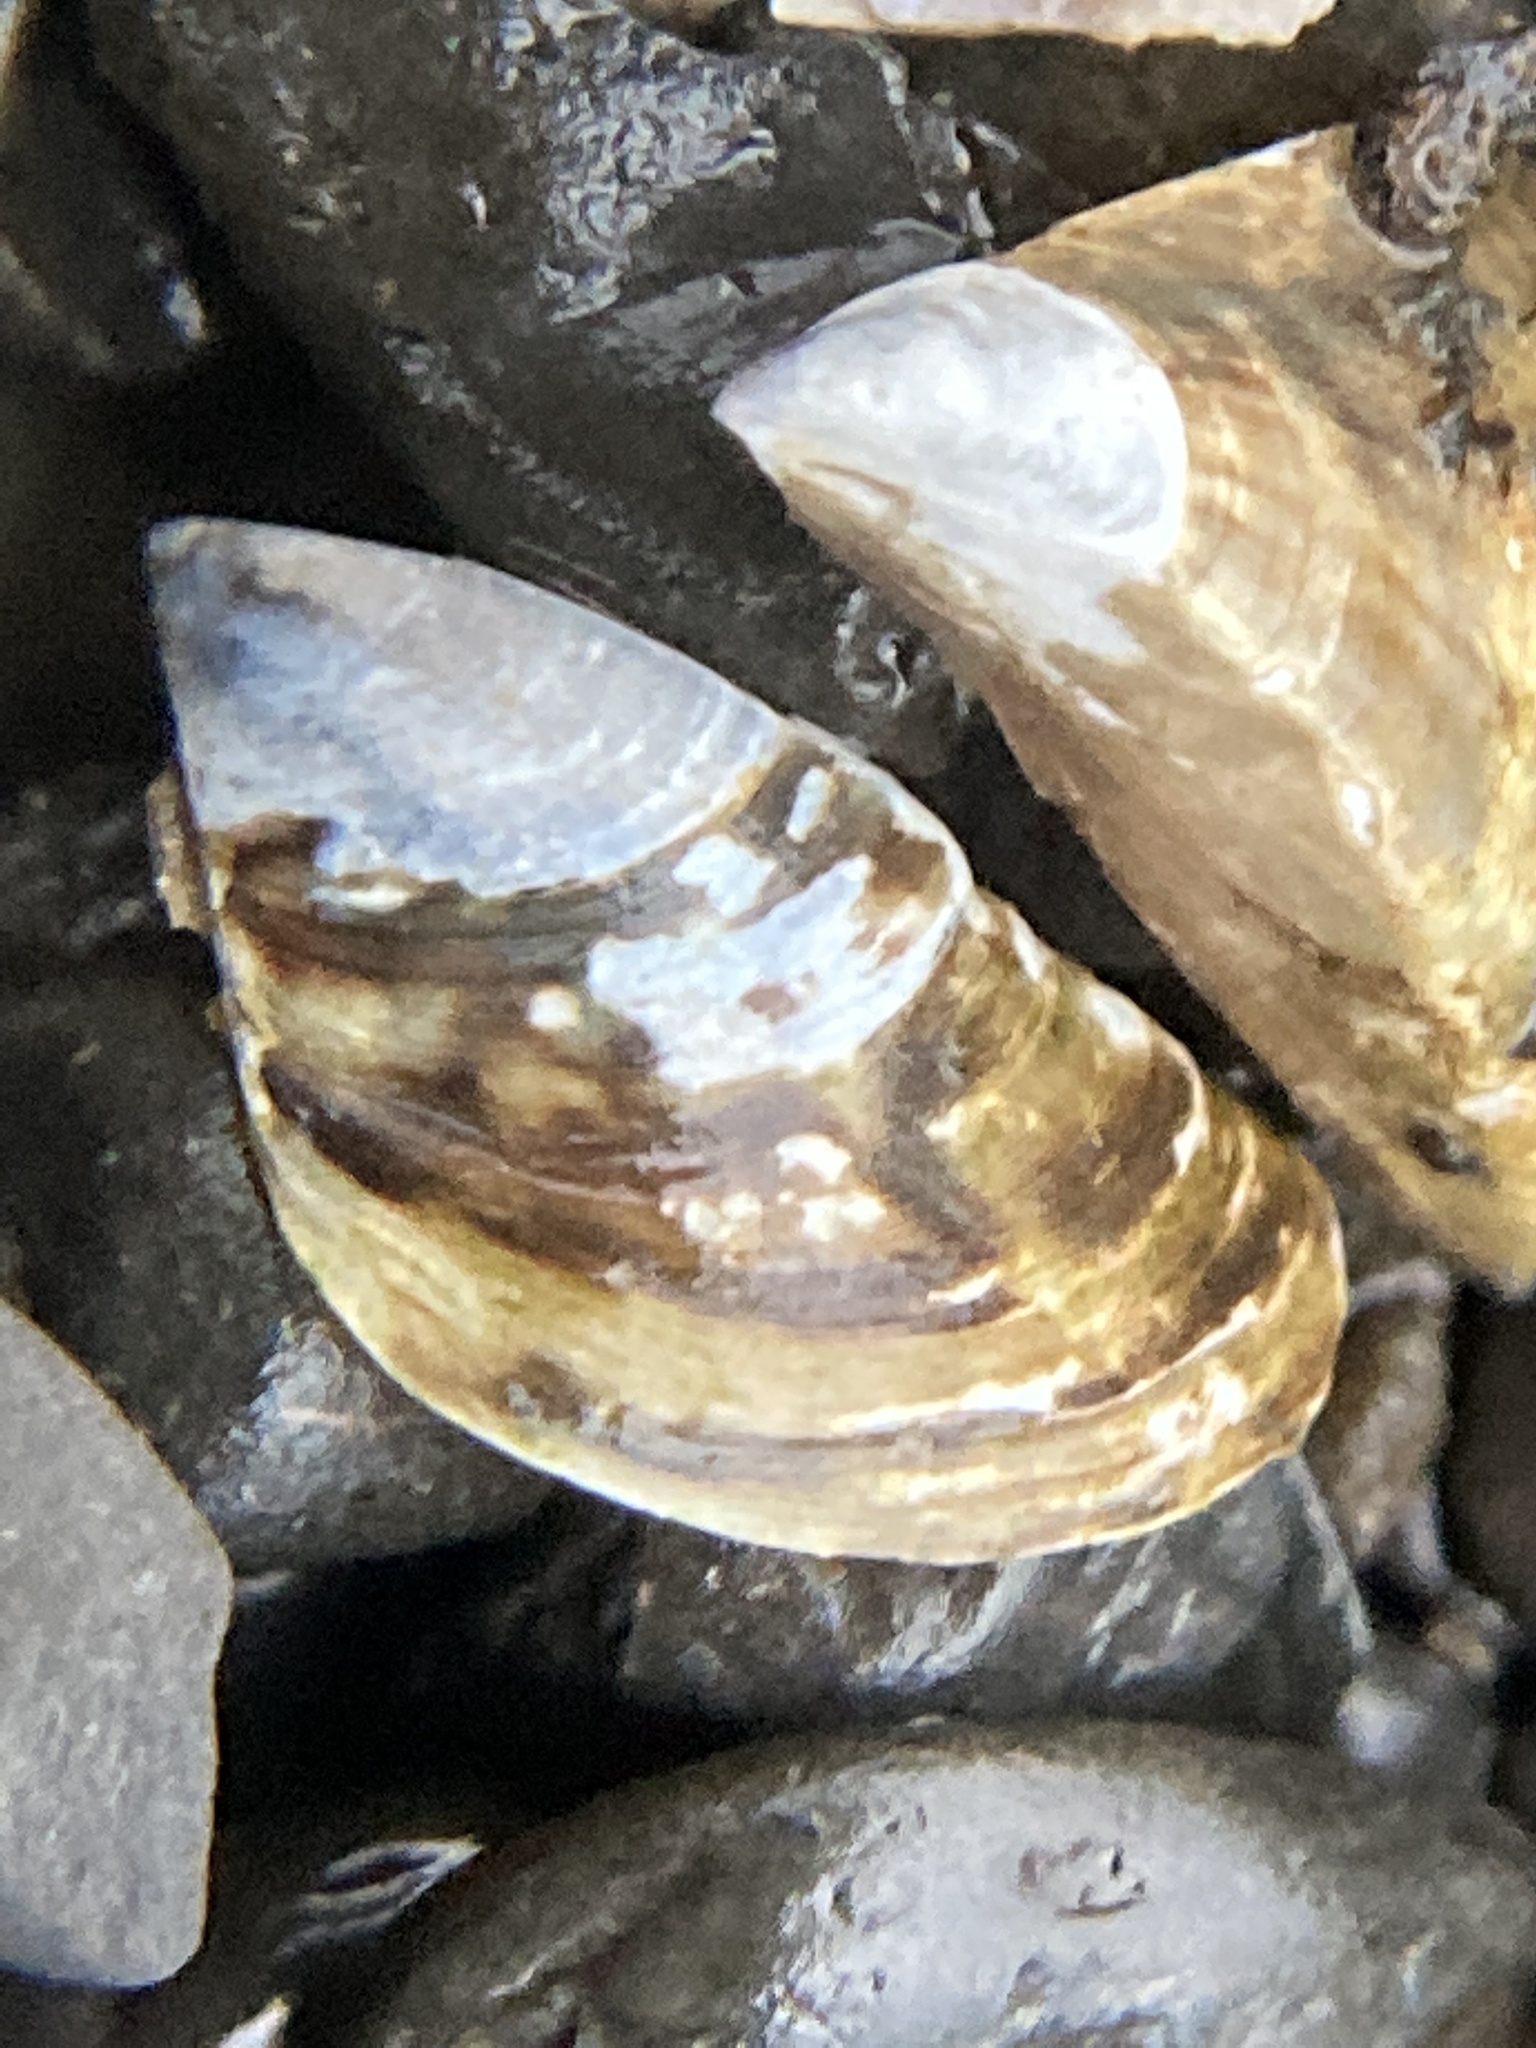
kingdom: Animalia
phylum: Mollusca
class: Bivalvia
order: Myida
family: Dreissenidae
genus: Dreissena
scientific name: Dreissena polymorpha
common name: Zebra mussel
